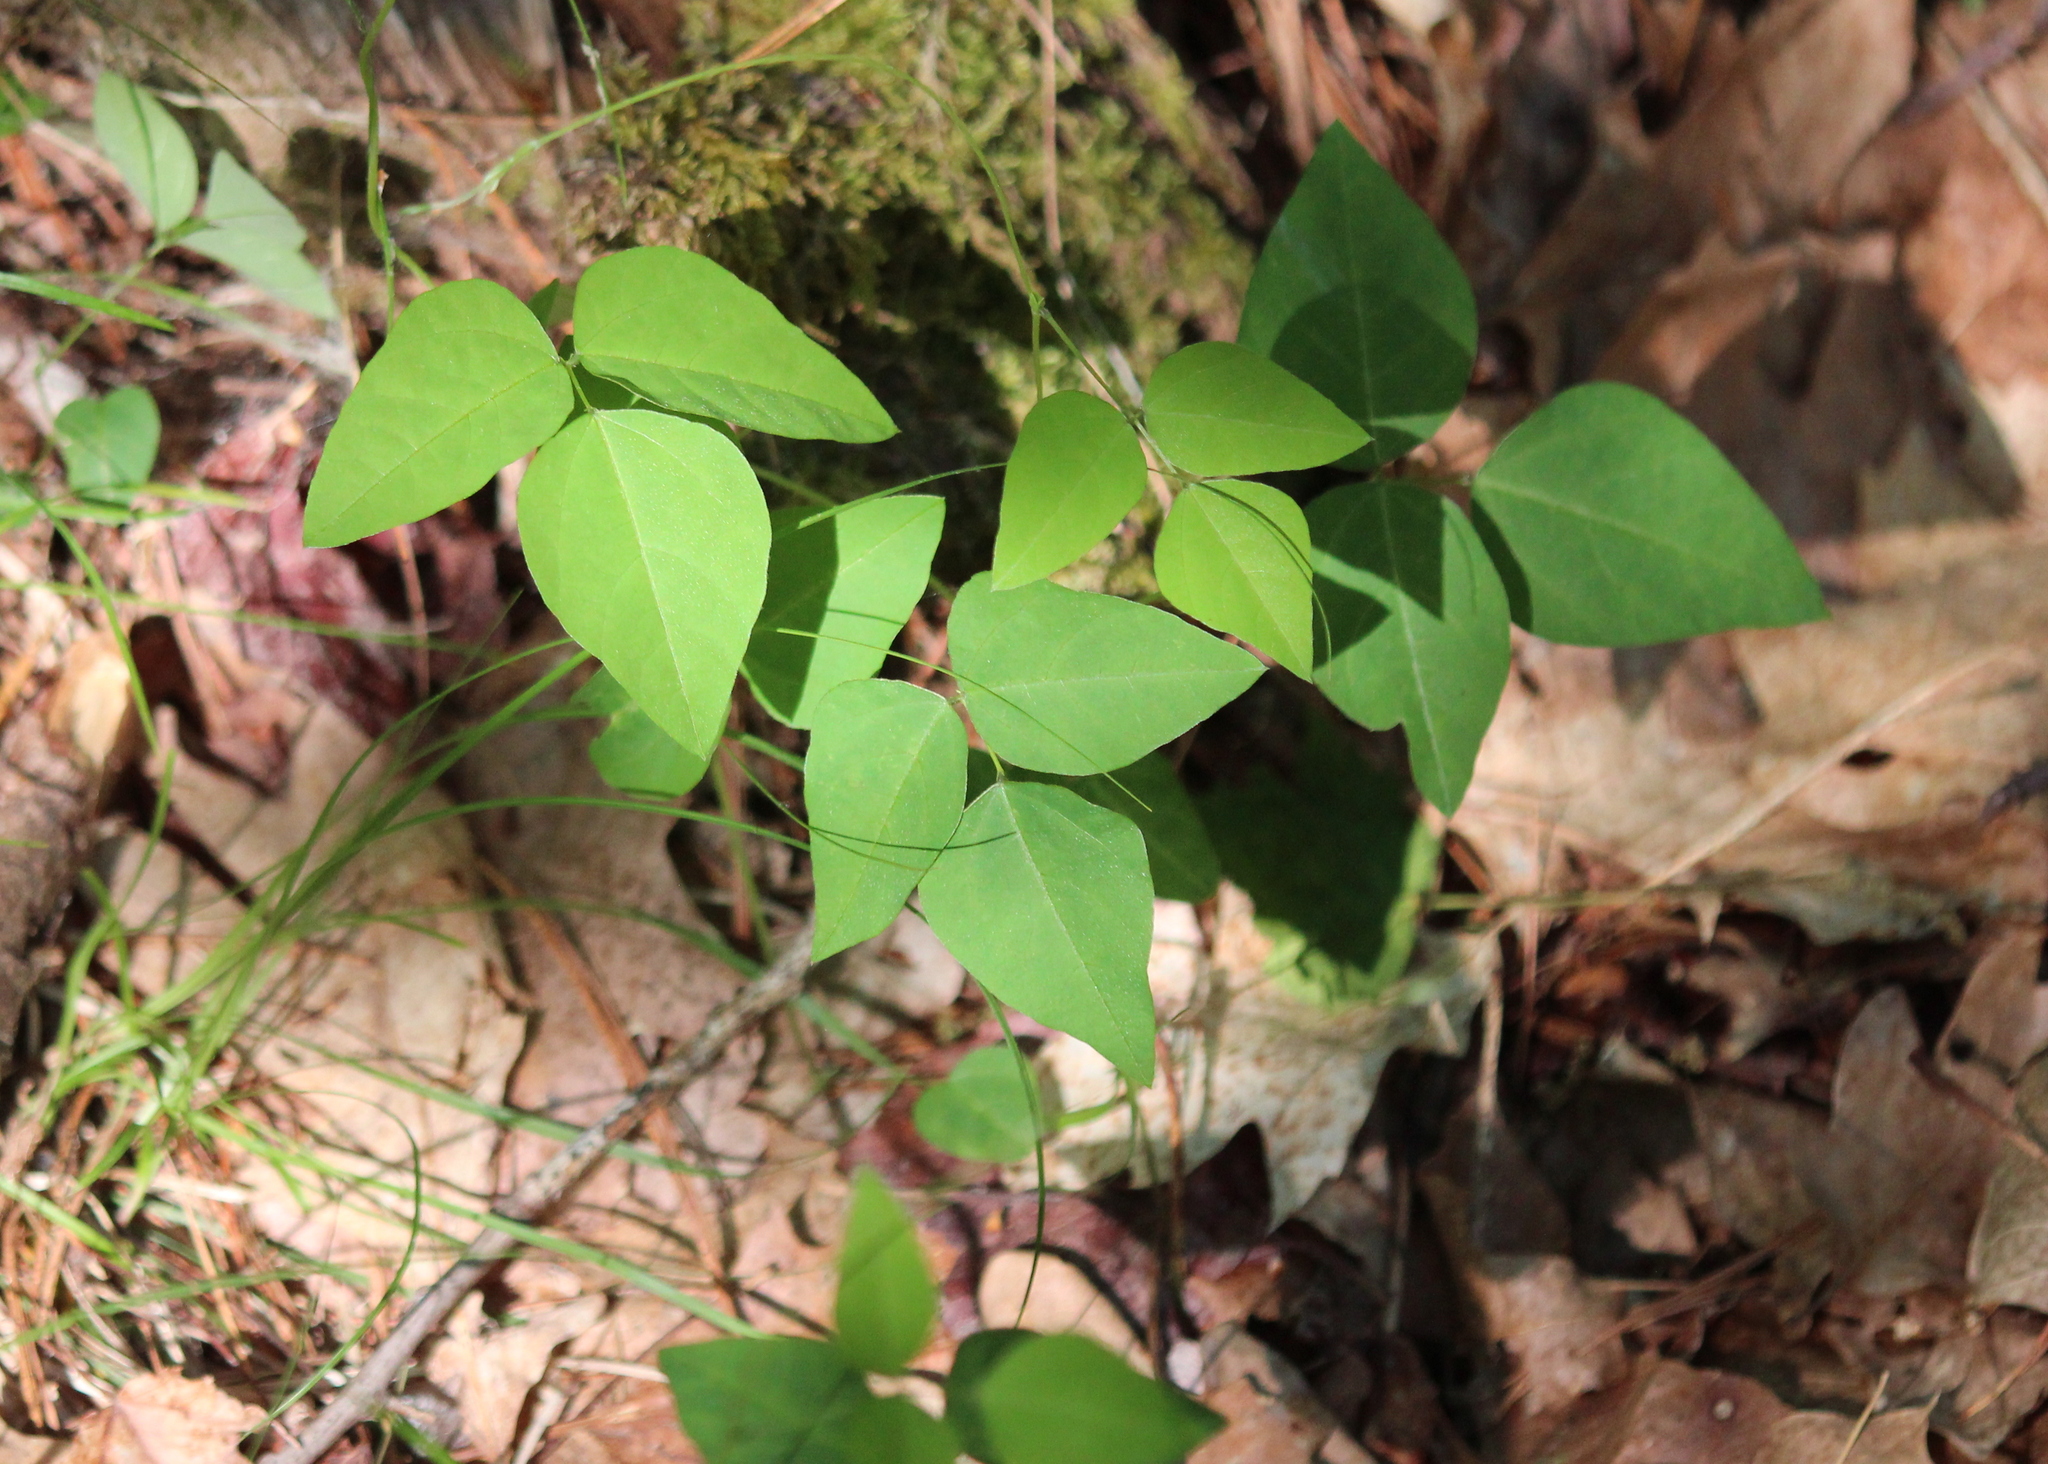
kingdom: Plantae
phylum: Tracheophyta
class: Magnoliopsida
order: Fabales
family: Fabaceae
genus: Amphicarpaea
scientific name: Amphicarpaea bracteata
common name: American hog peanut
